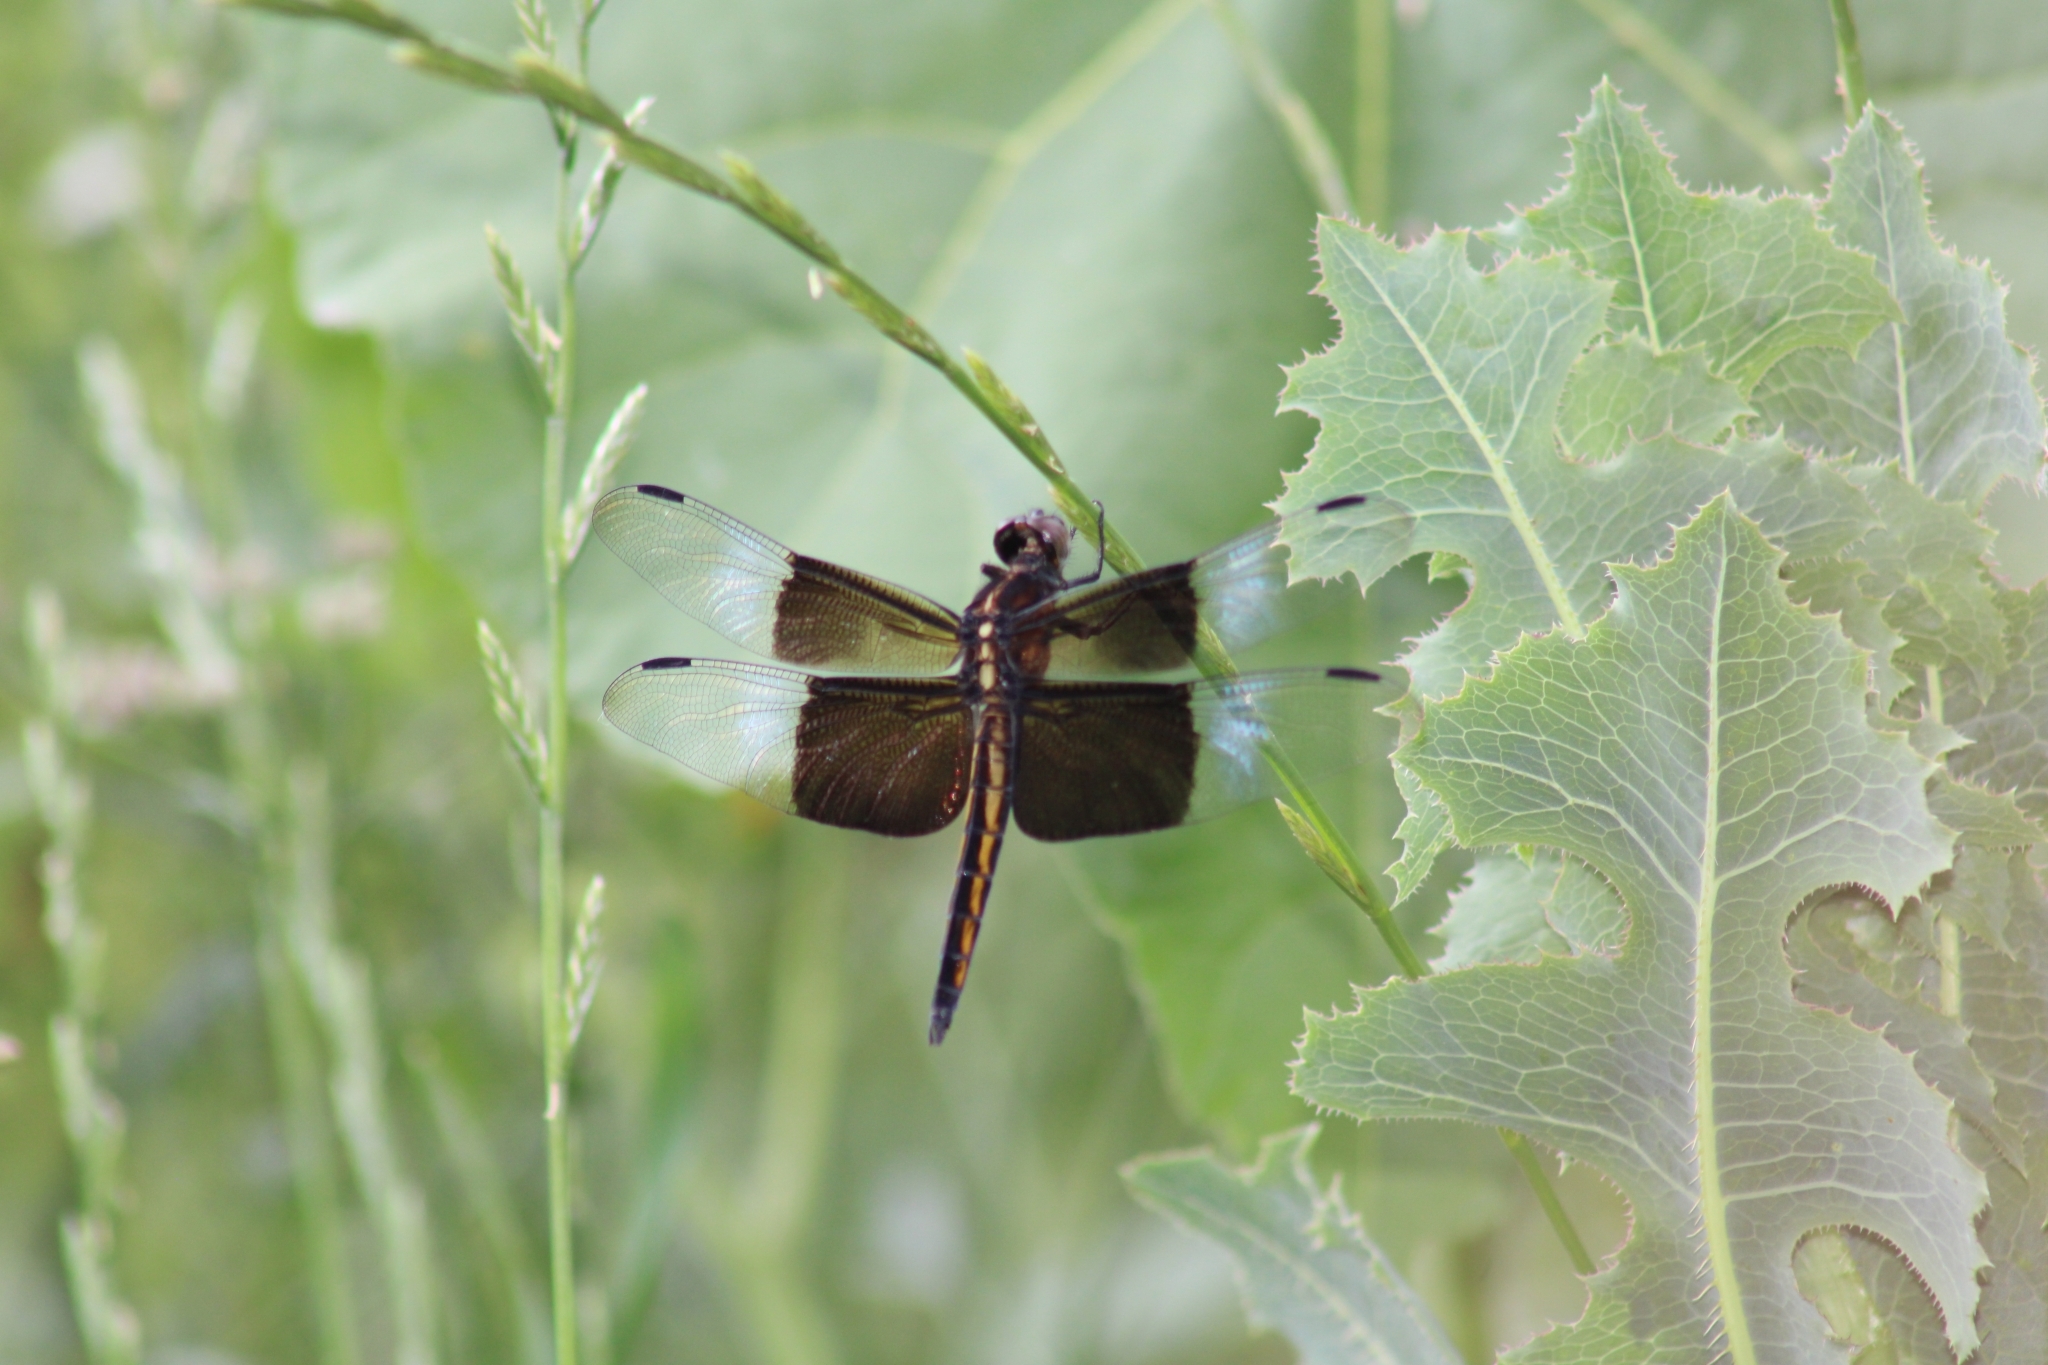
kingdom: Animalia
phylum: Arthropoda
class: Insecta
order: Odonata
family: Libellulidae
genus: Libellula
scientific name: Libellula luctuosa
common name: Widow skimmer
